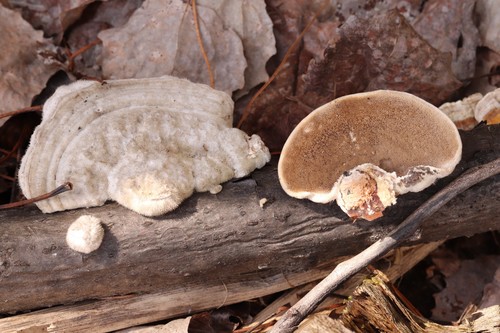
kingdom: Fungi
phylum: Basidiomycota
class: Agaricomycetes
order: Polyporales
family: Polyporaceae
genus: Trametes
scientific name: Trametes hirsuta
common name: Hairy bracket
